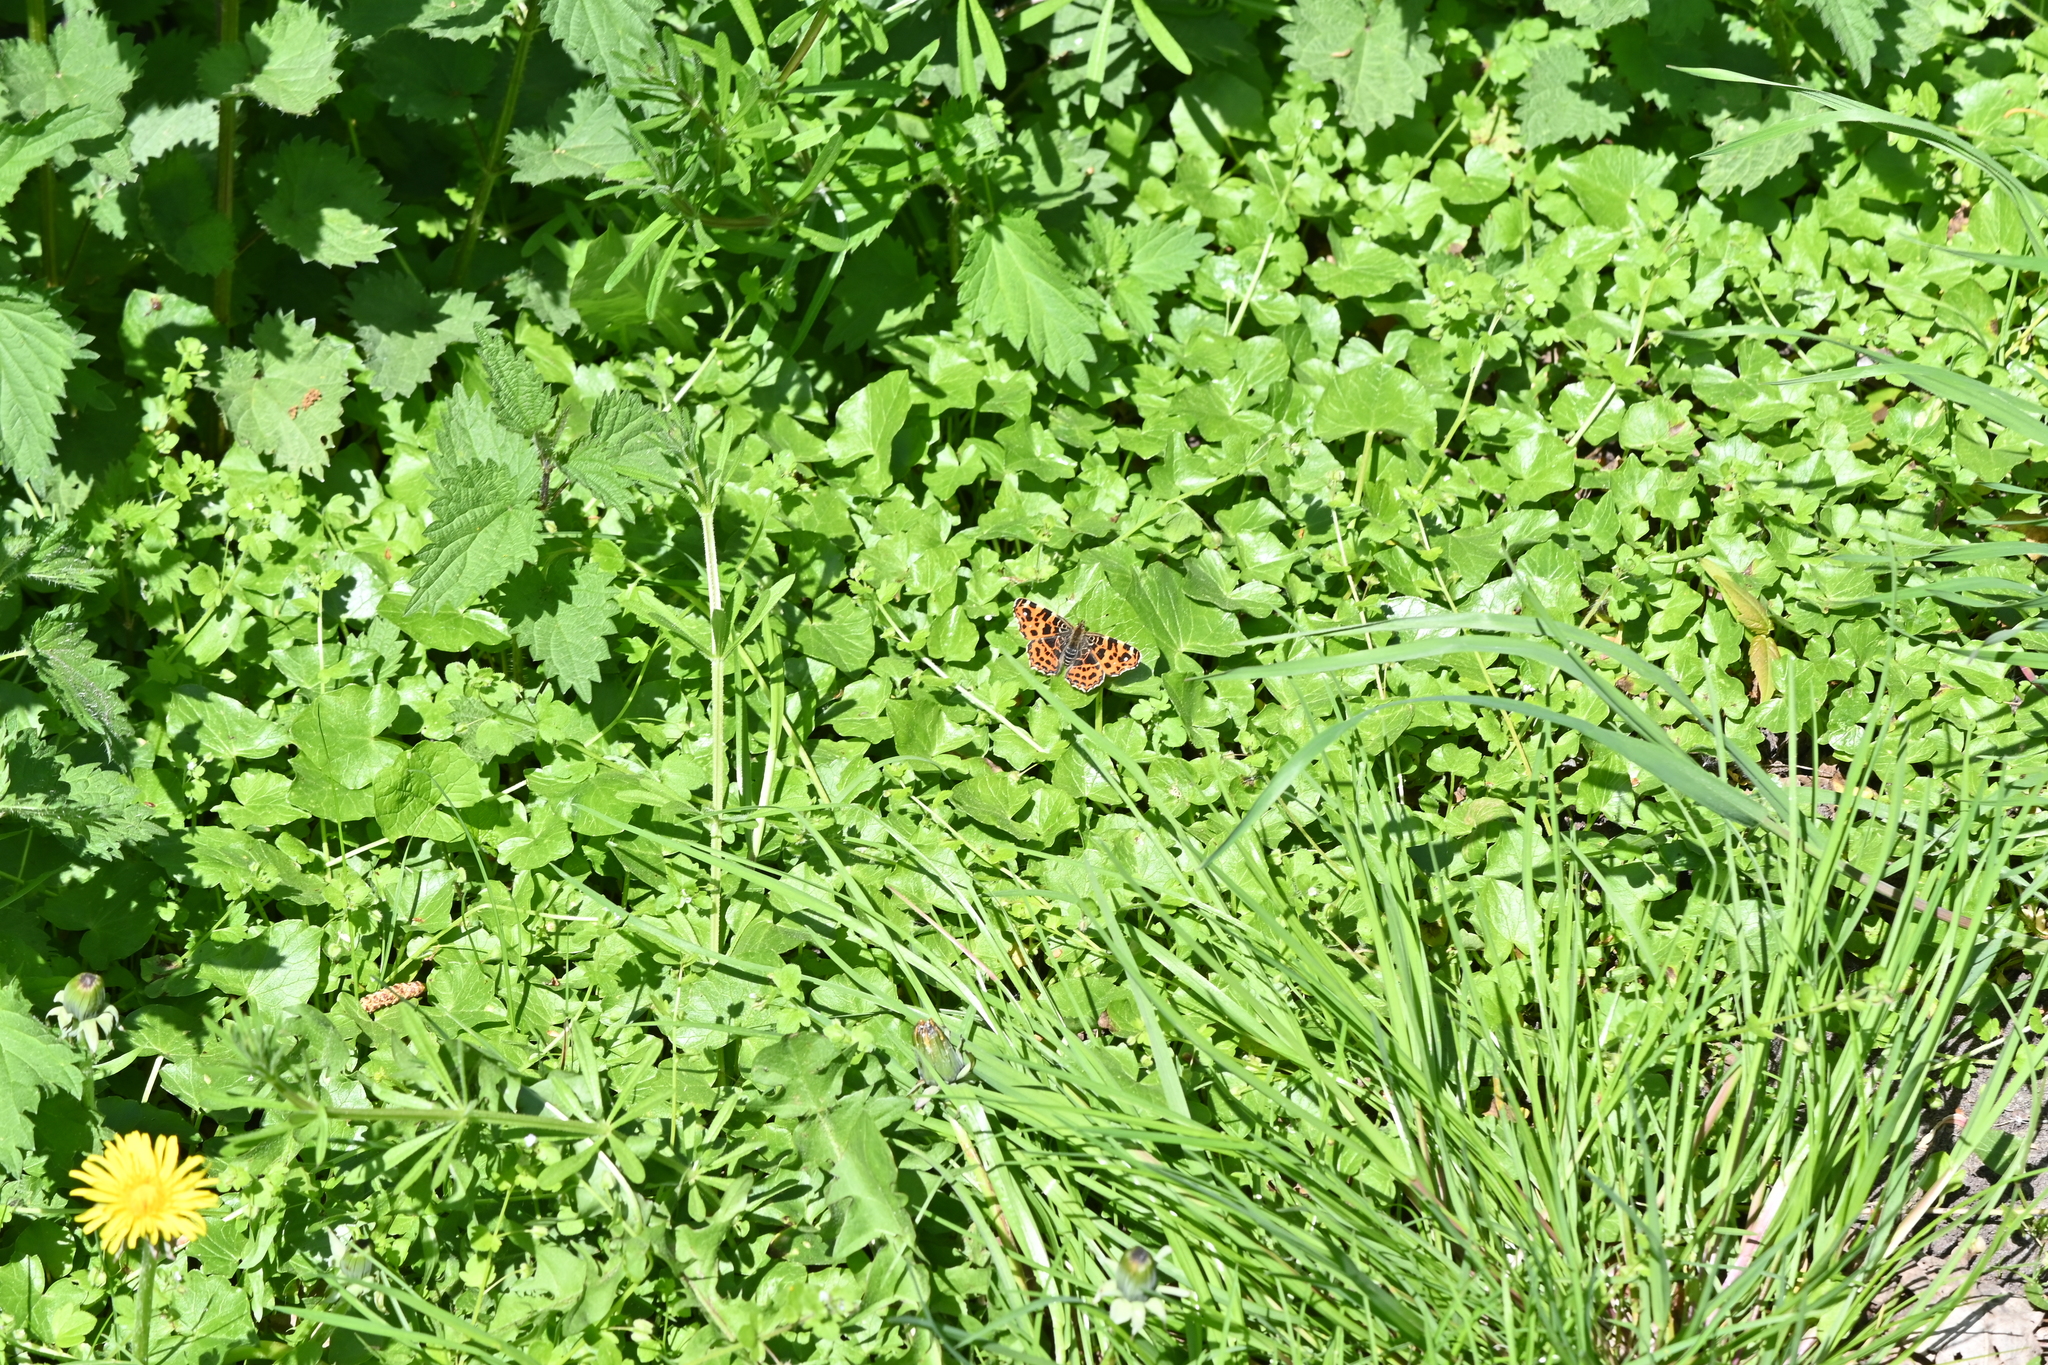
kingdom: Animalia
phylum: Arthropoda
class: Insecta
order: Lepidoptera
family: Nymphalidae
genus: Araschnia
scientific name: Araschnia levana
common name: Map butterfly
